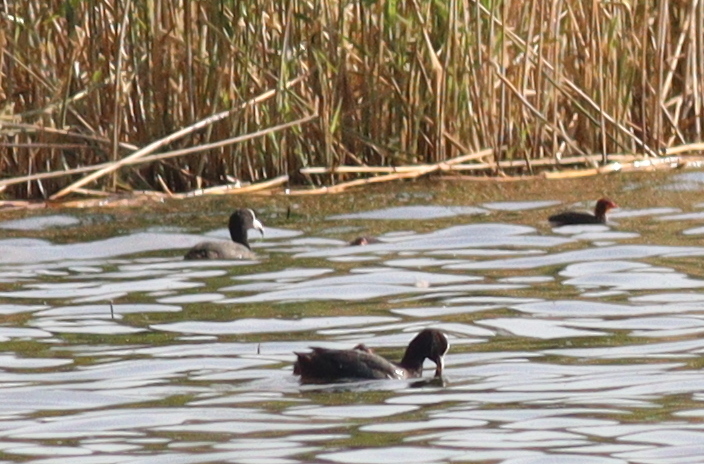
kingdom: Animalia
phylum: Chordata
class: Aves
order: Gruiformes
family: Rallidae
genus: Fulica
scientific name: Fulica atra
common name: Eurasian coot
